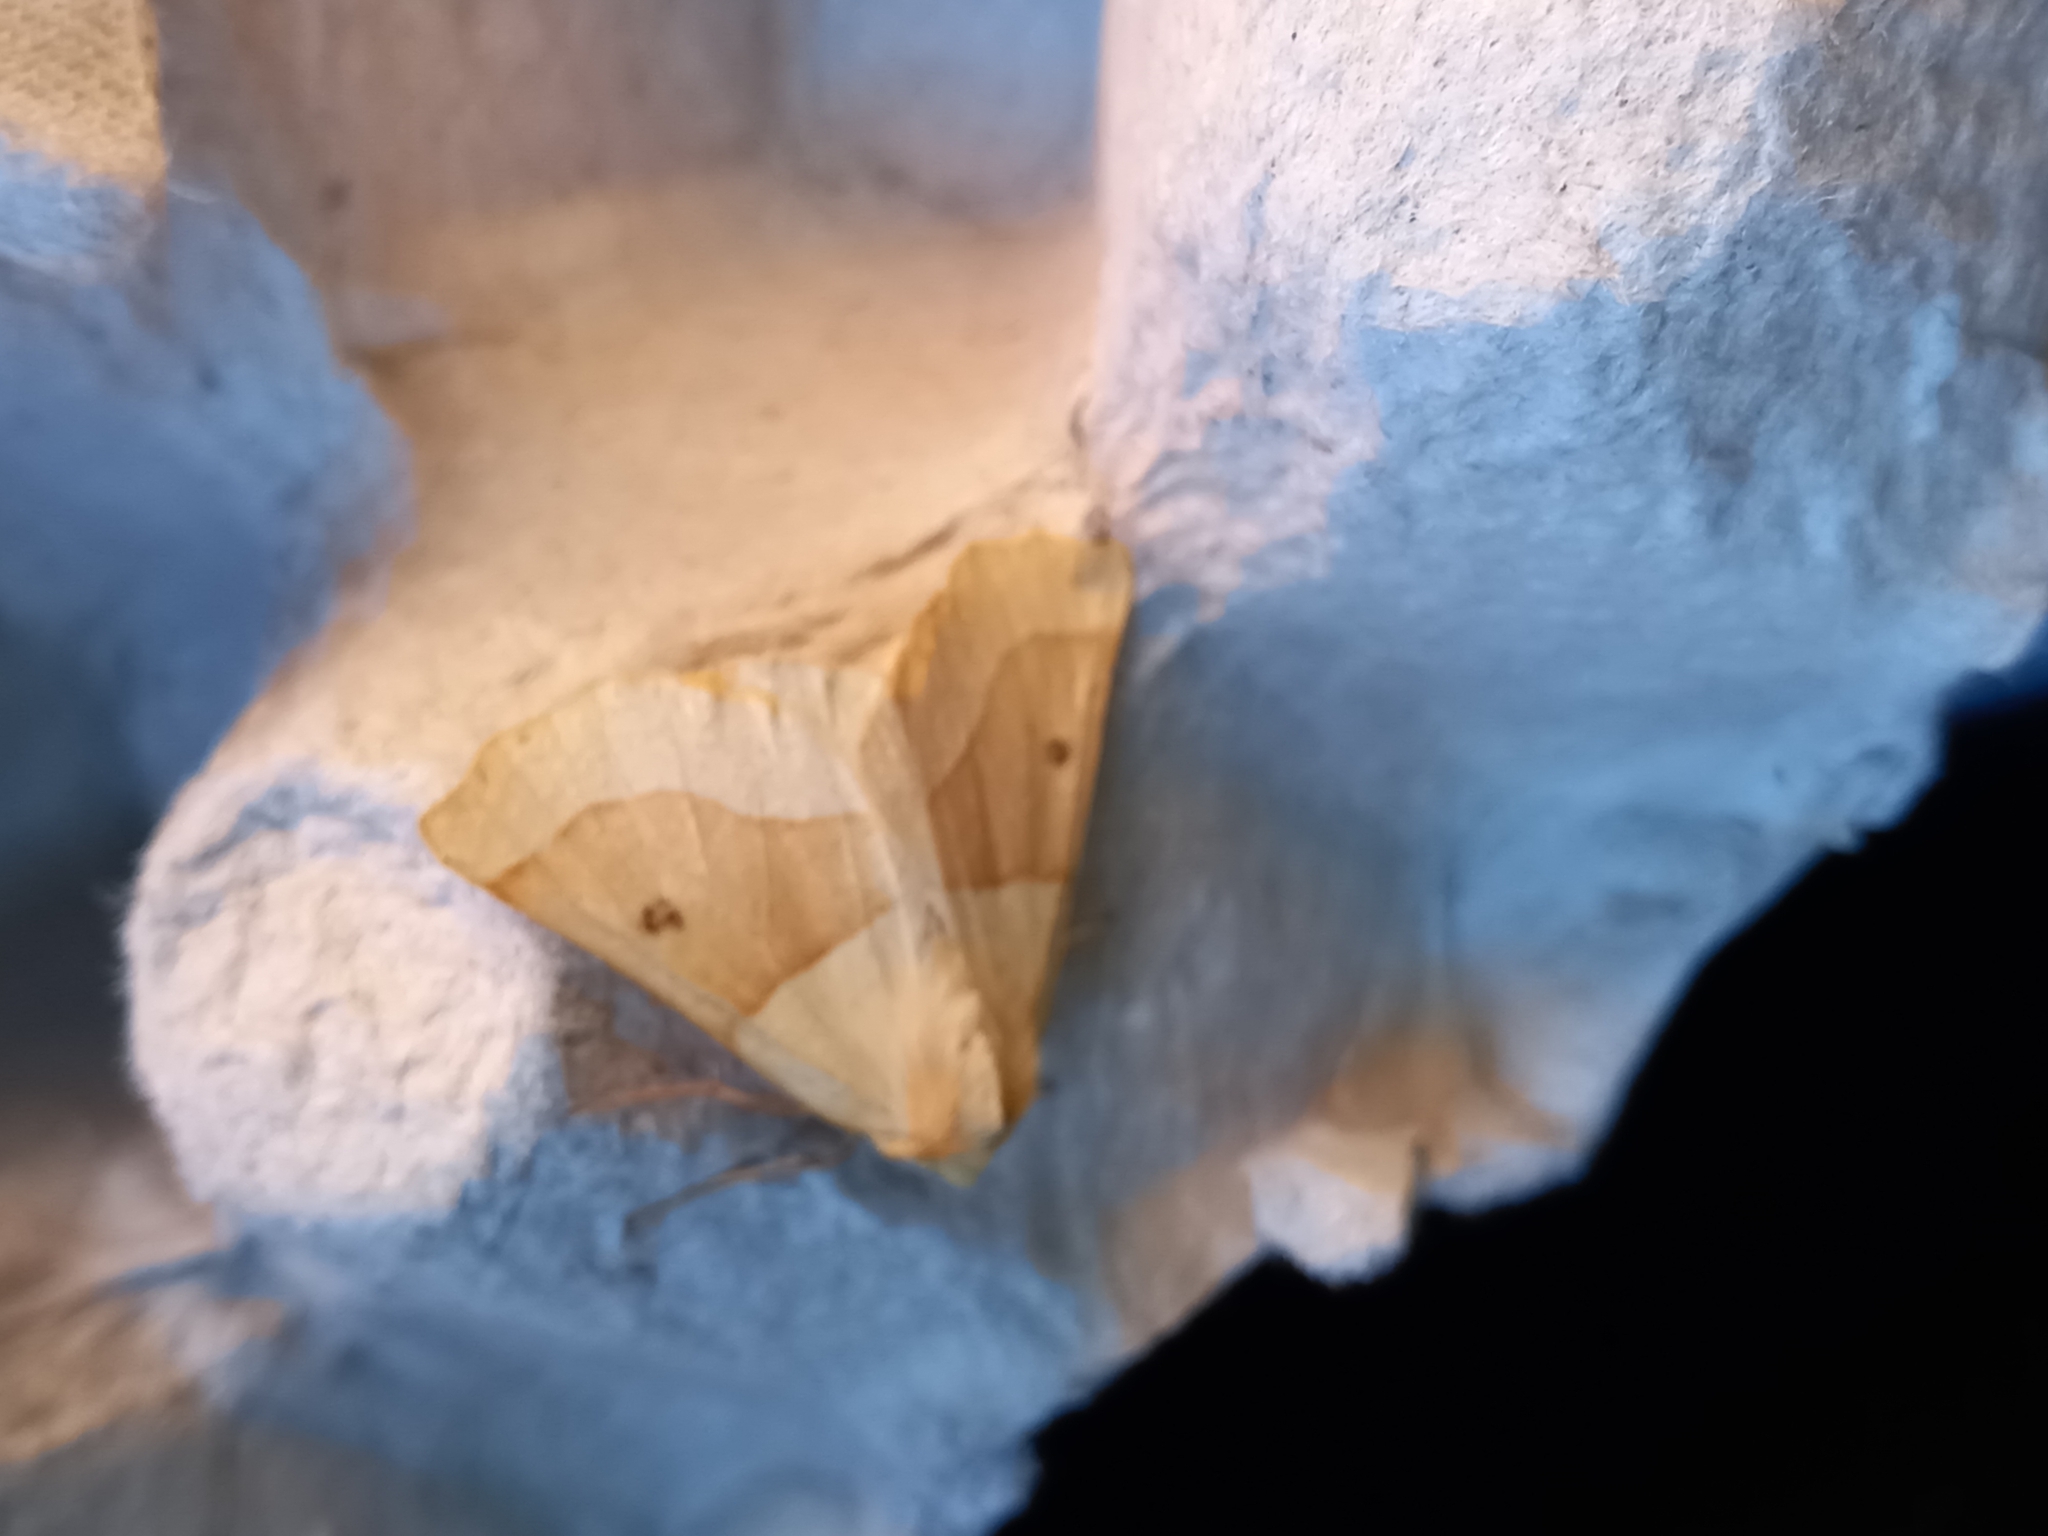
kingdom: Animalia
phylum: Arthropoda
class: Insecta
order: Lepidoptera
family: Geometridae
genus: Crocallis
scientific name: Crocallis elinguaria
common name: Scalloped oak
